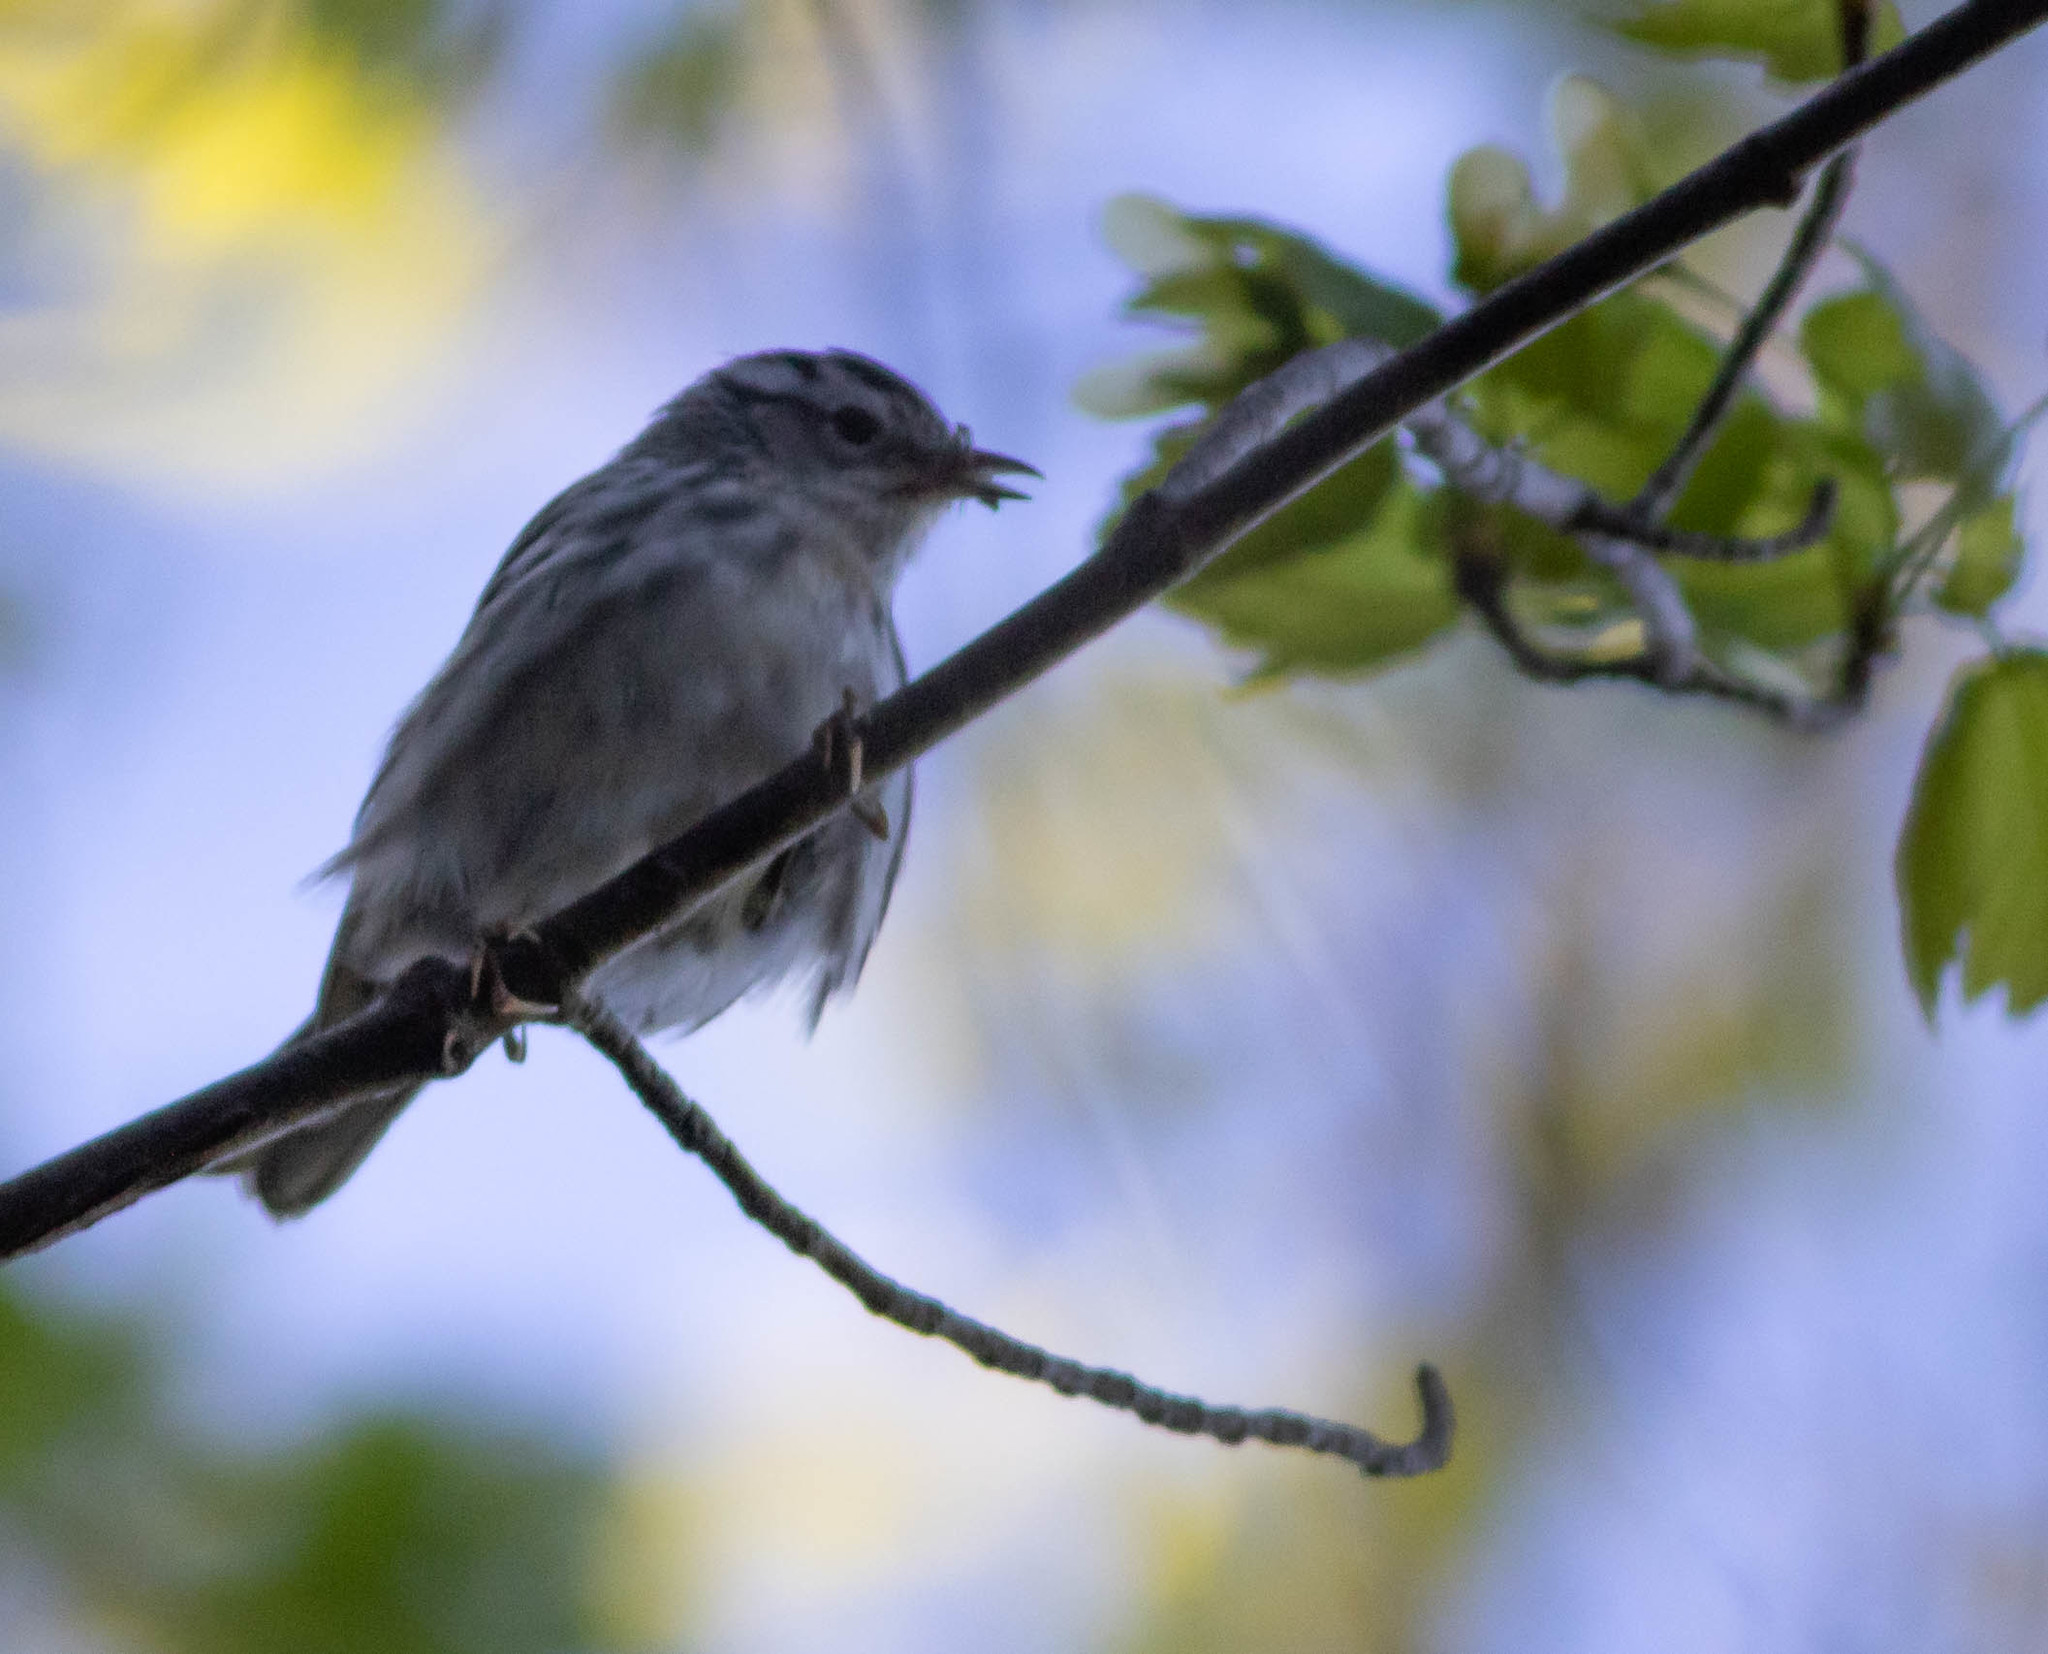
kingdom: Animalia
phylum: Chordata
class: Aves
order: Passeriformes
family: Parulidae
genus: Mniotilta
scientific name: Mniotilta varia
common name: Black-and-white warbler
